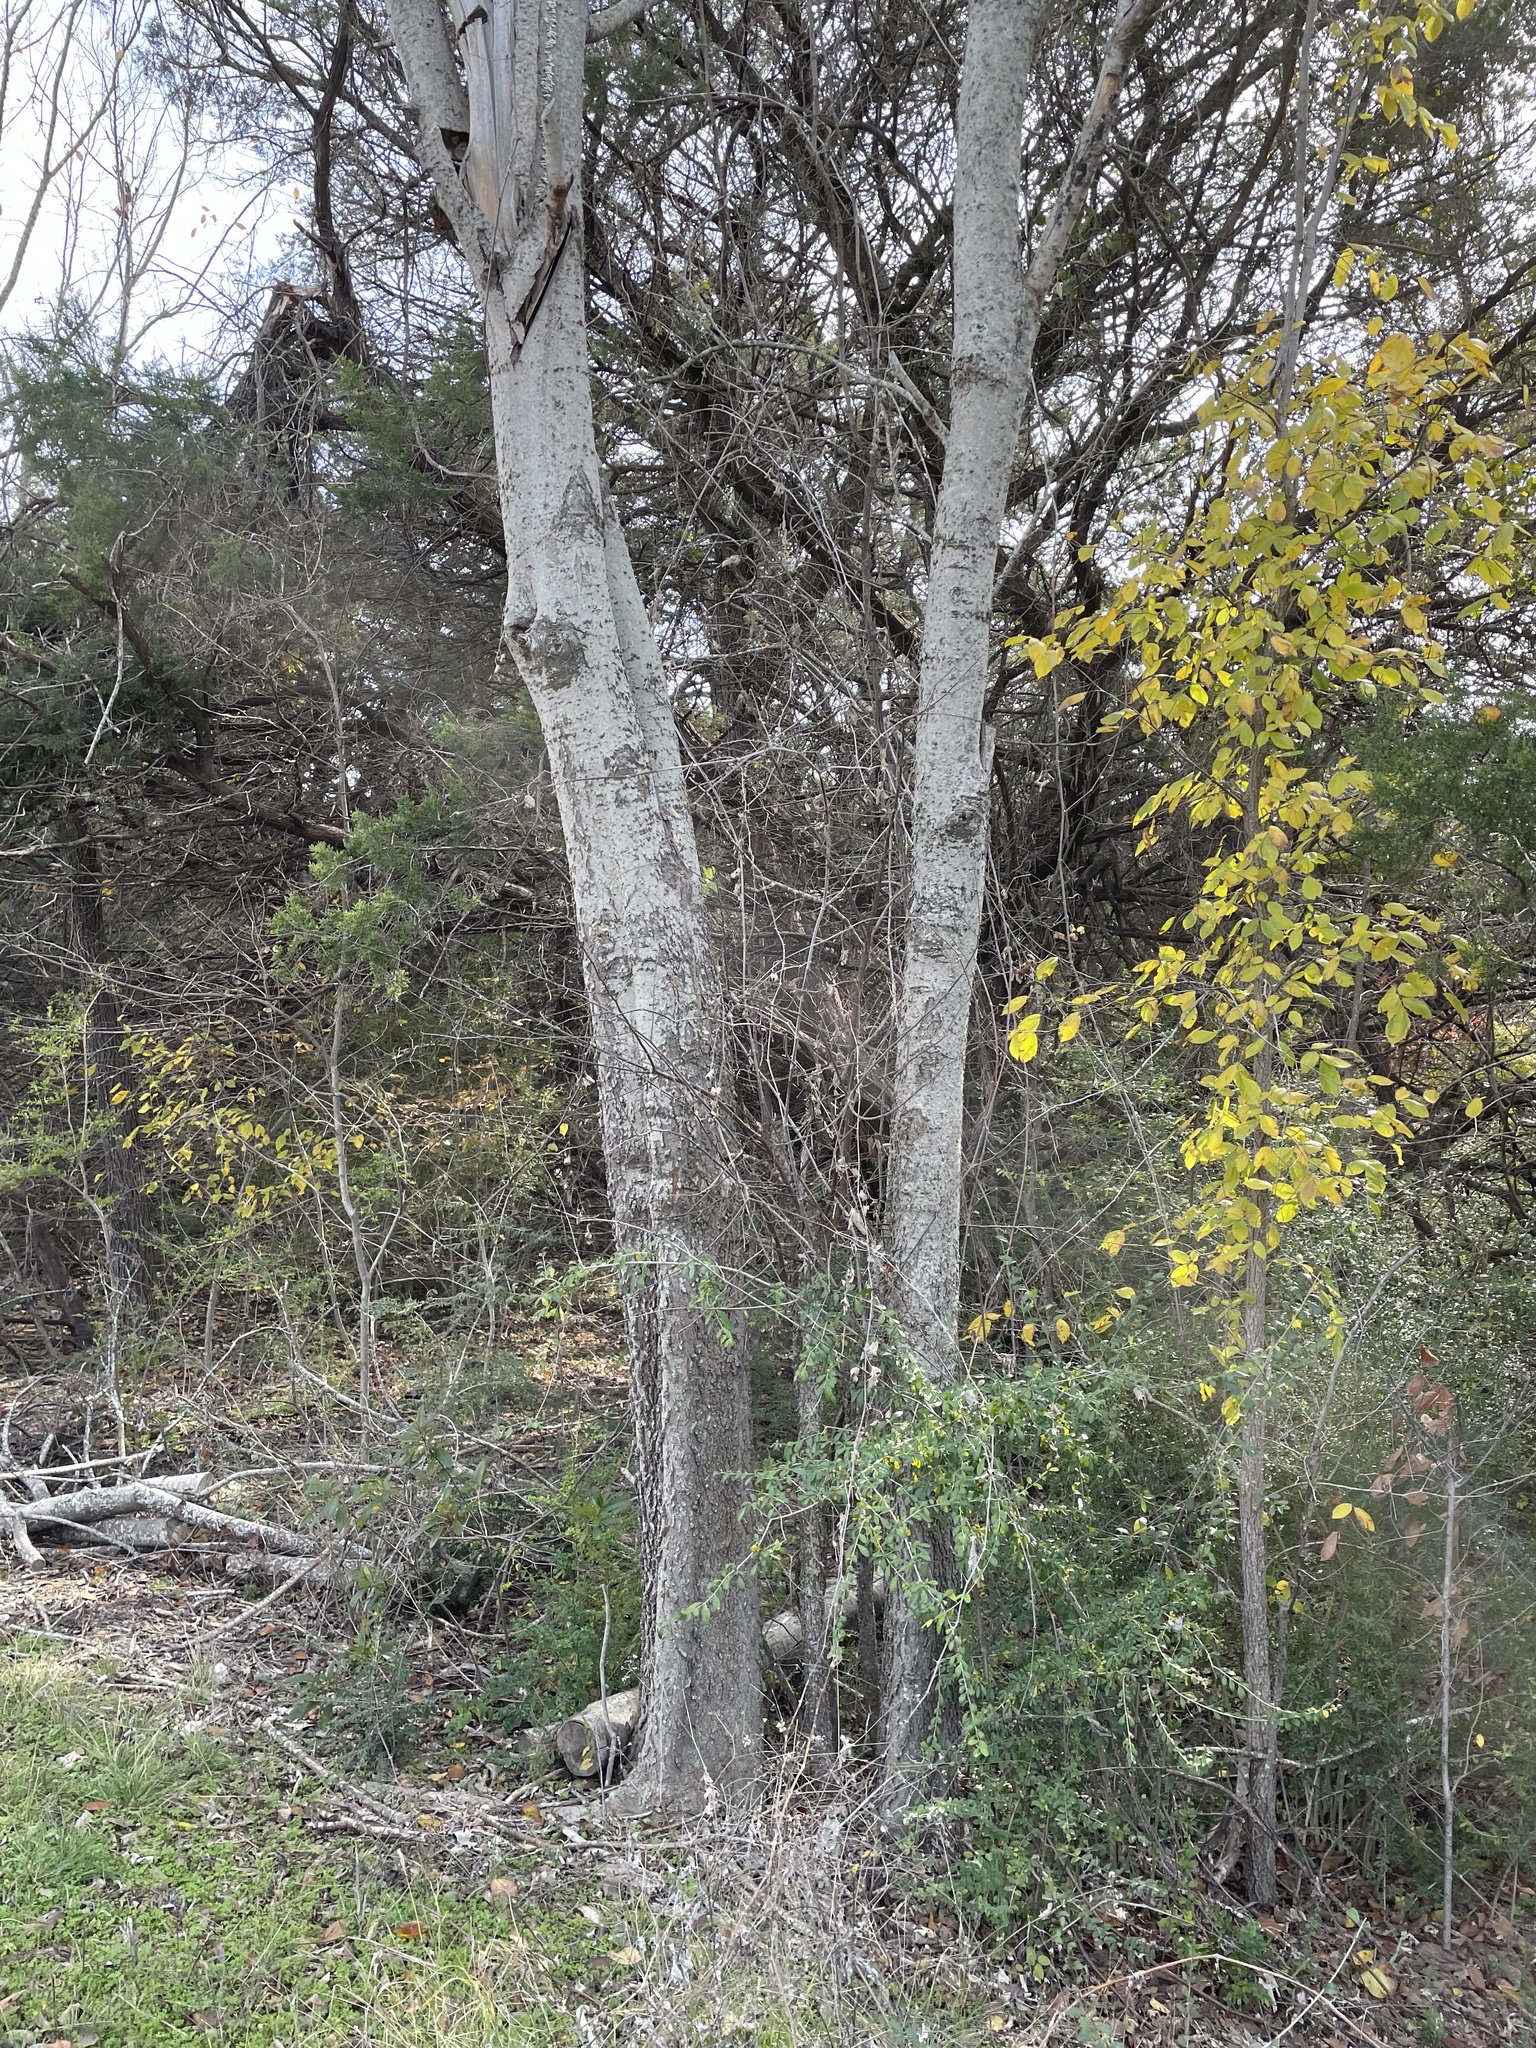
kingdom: Plantae
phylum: Tracheophyta
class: Magnoliopsida
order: Rosales
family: Cannabaceae
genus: Celtis
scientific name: Celtis laevigata
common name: Sugarberry
